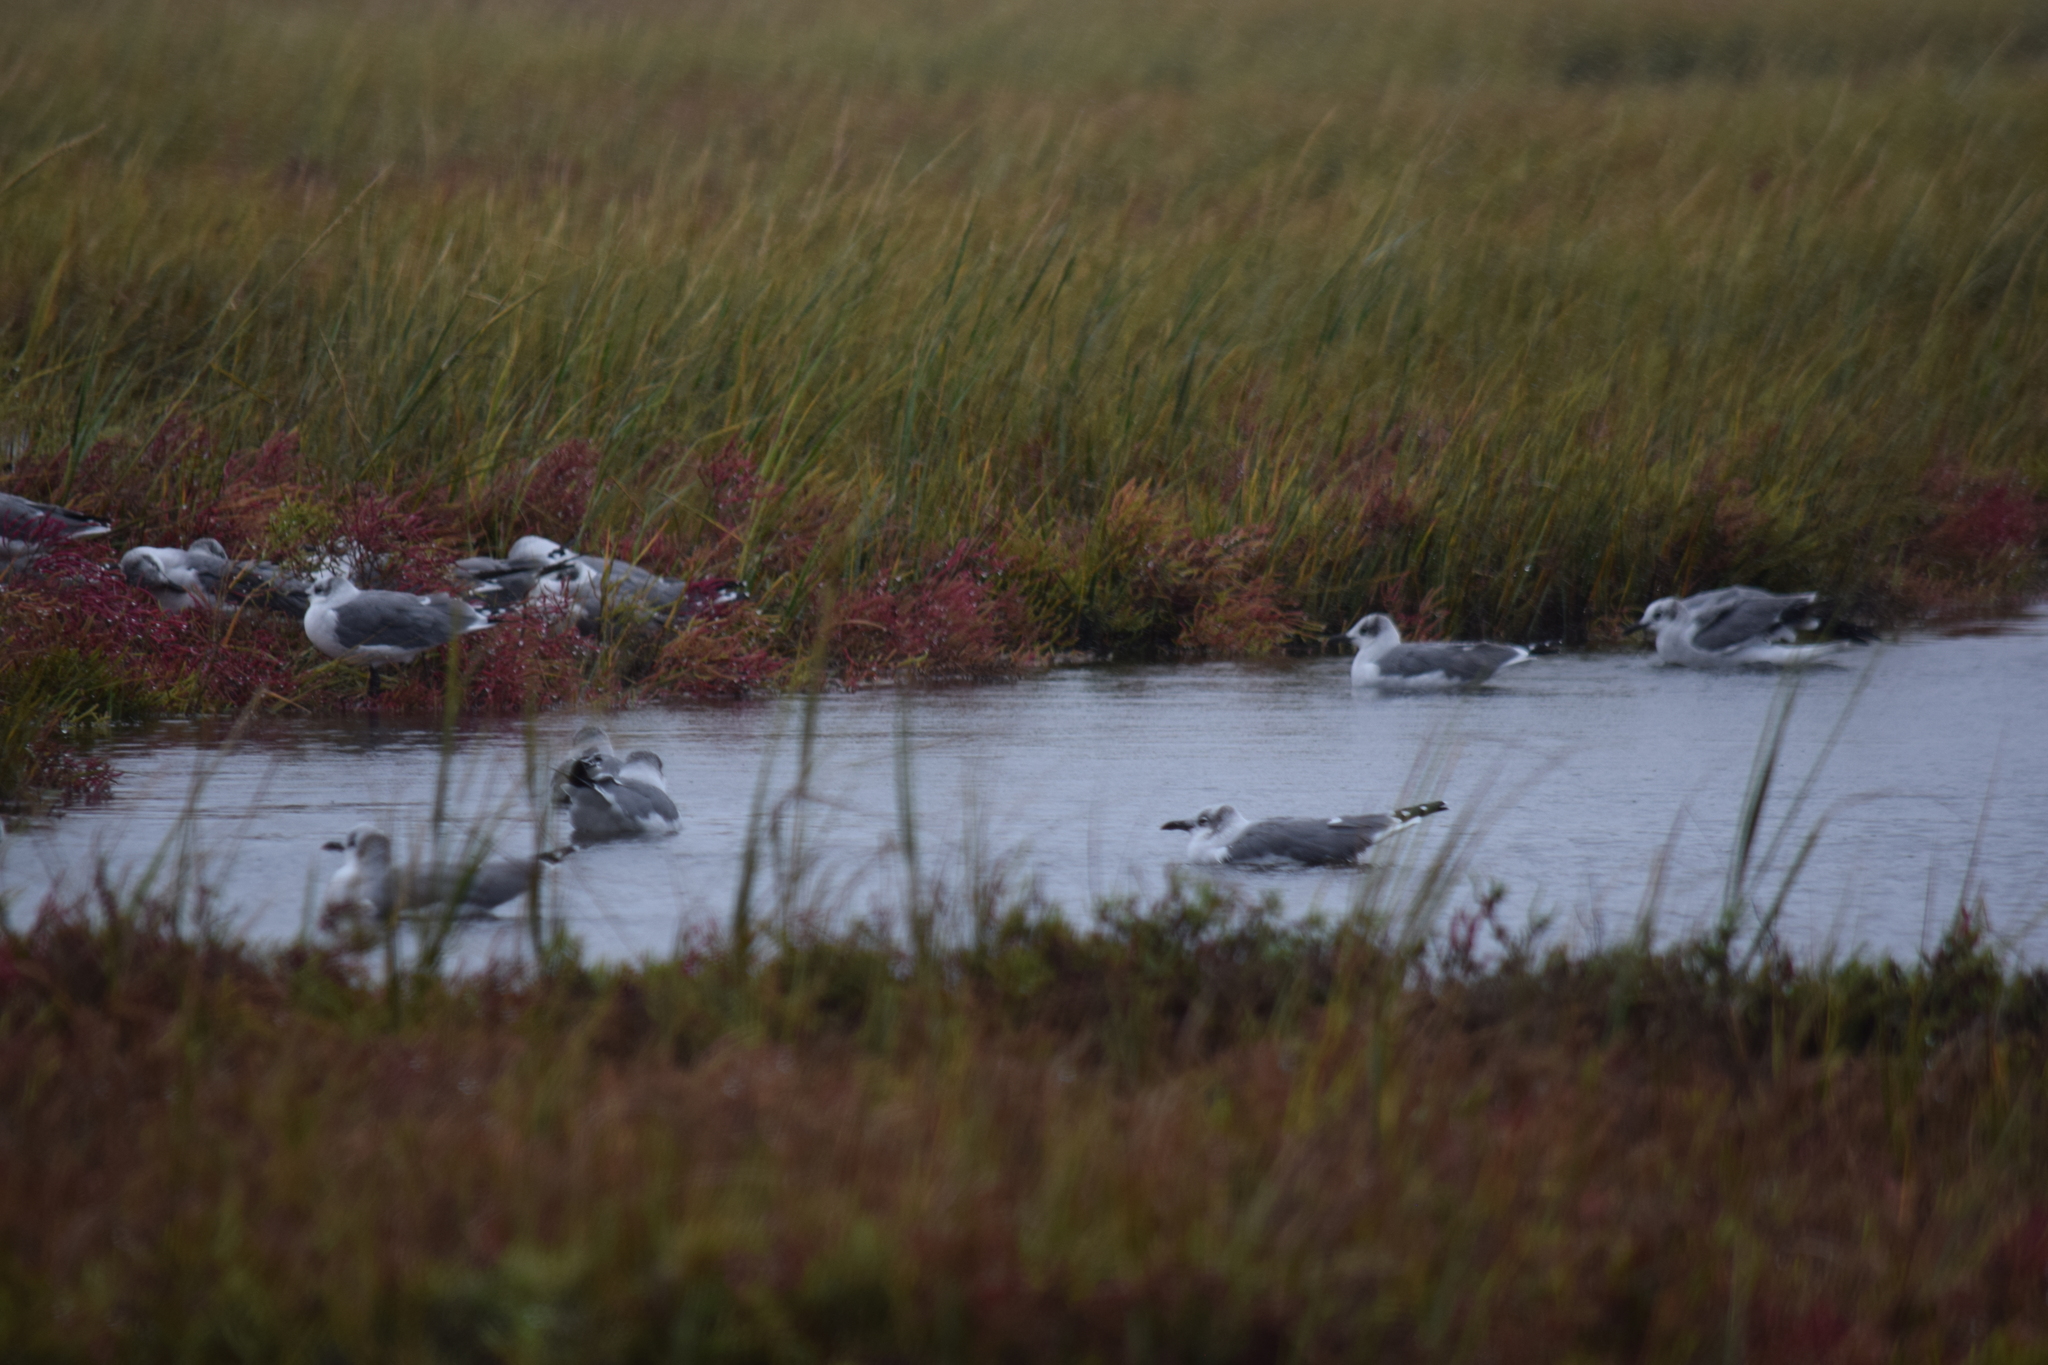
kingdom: Animalia
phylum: Chordata
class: Aves
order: Charadriiformes
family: Laridae
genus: Leucophaeus
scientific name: Leucophaeus atricilla
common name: Laughing gull
